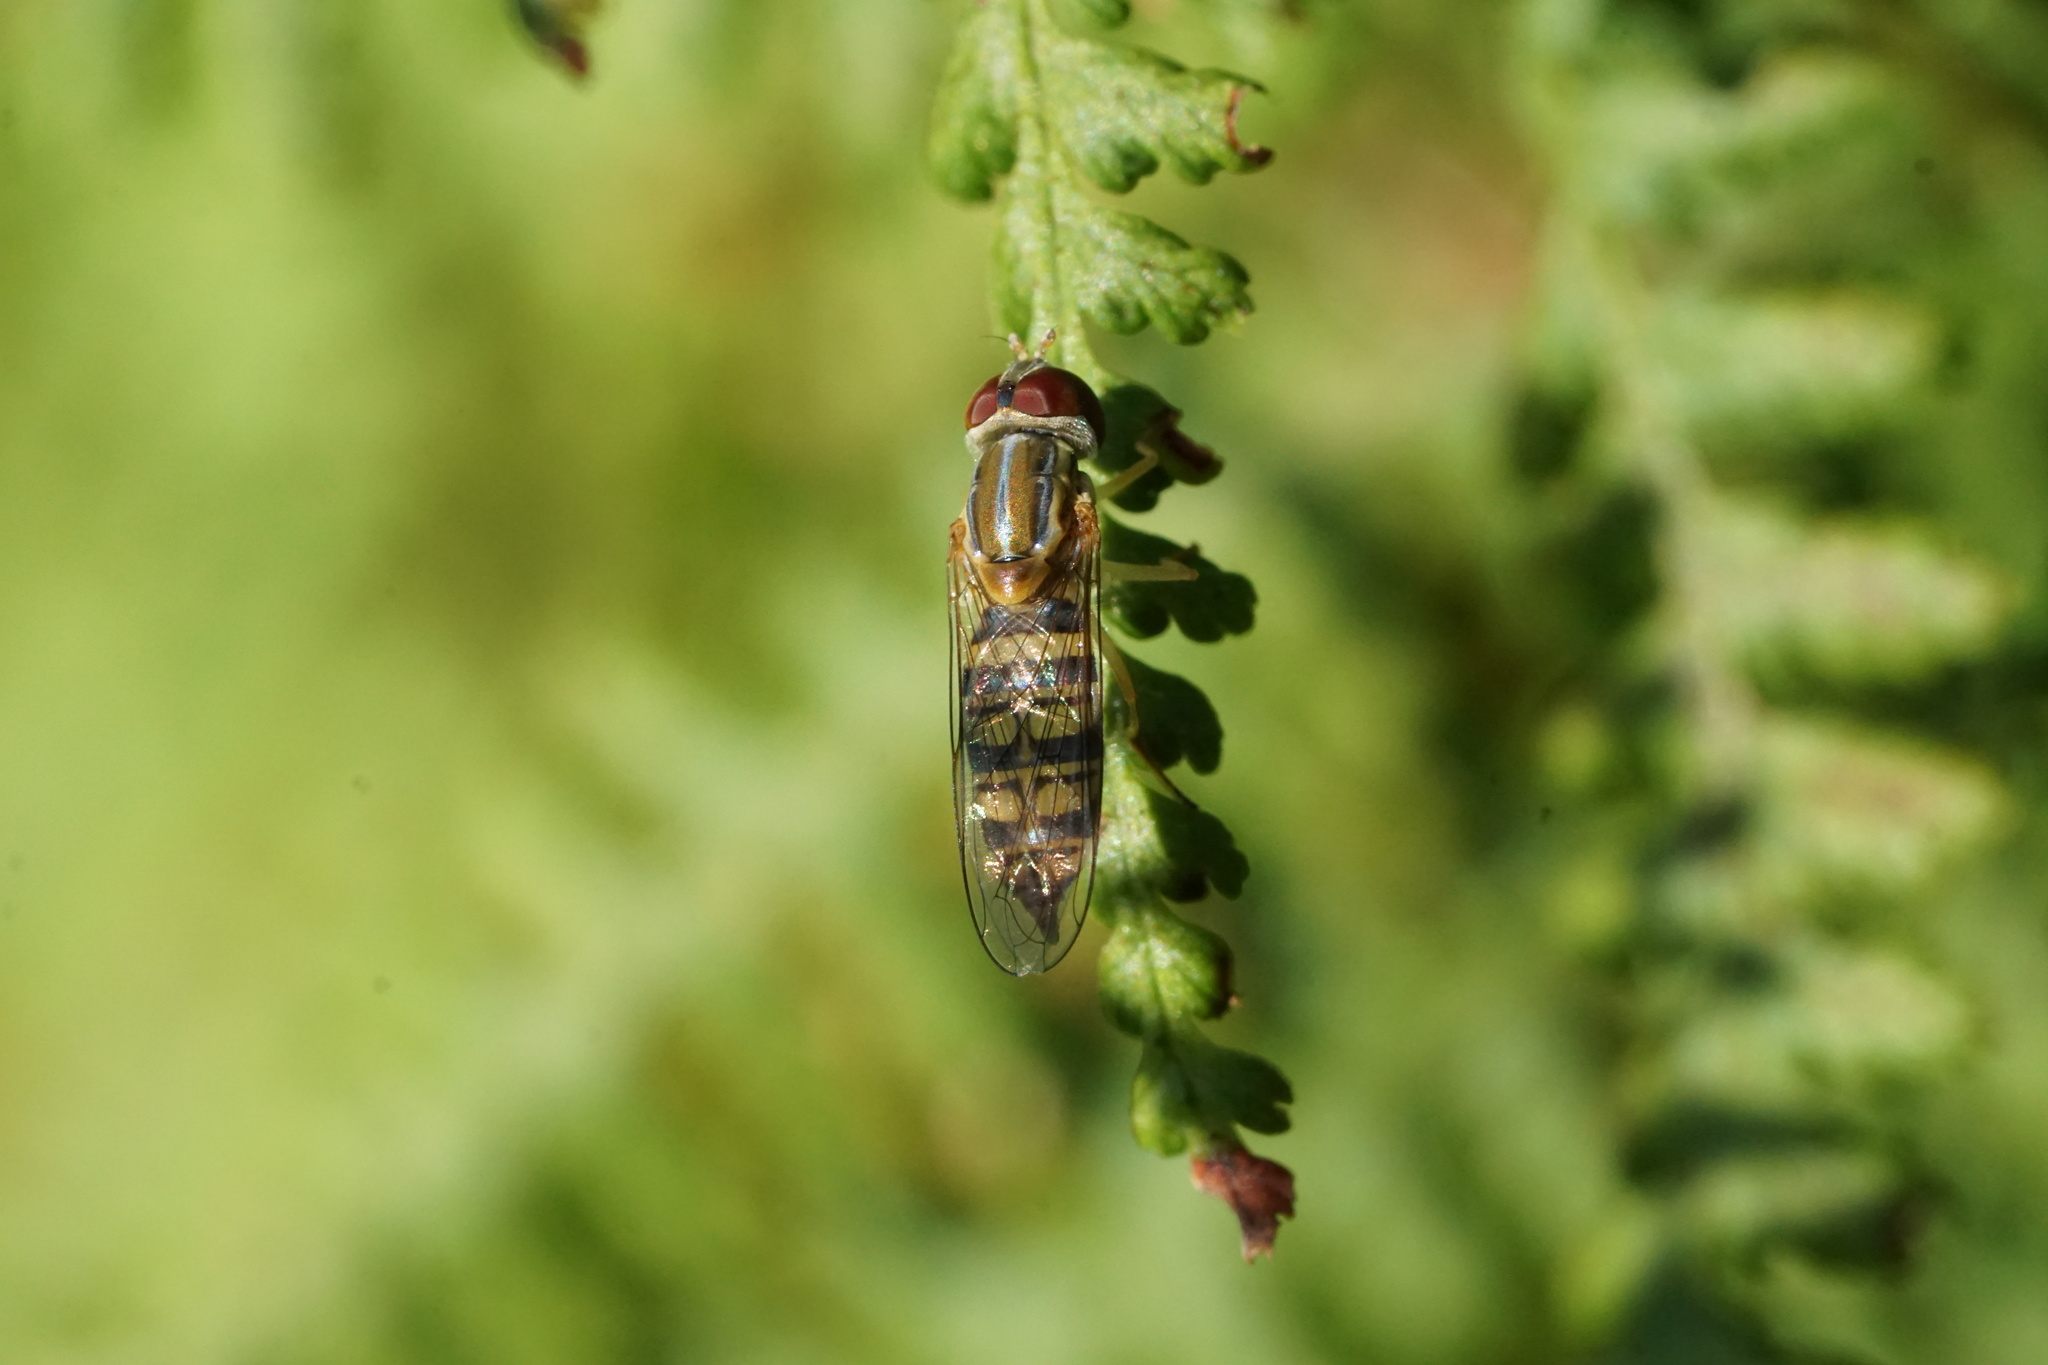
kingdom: Animalia
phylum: Arthropoda
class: Insecta
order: Diptera
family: Syrphidae
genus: Toxomerus
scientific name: Toxomerus politus
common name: Maize calligrapher
